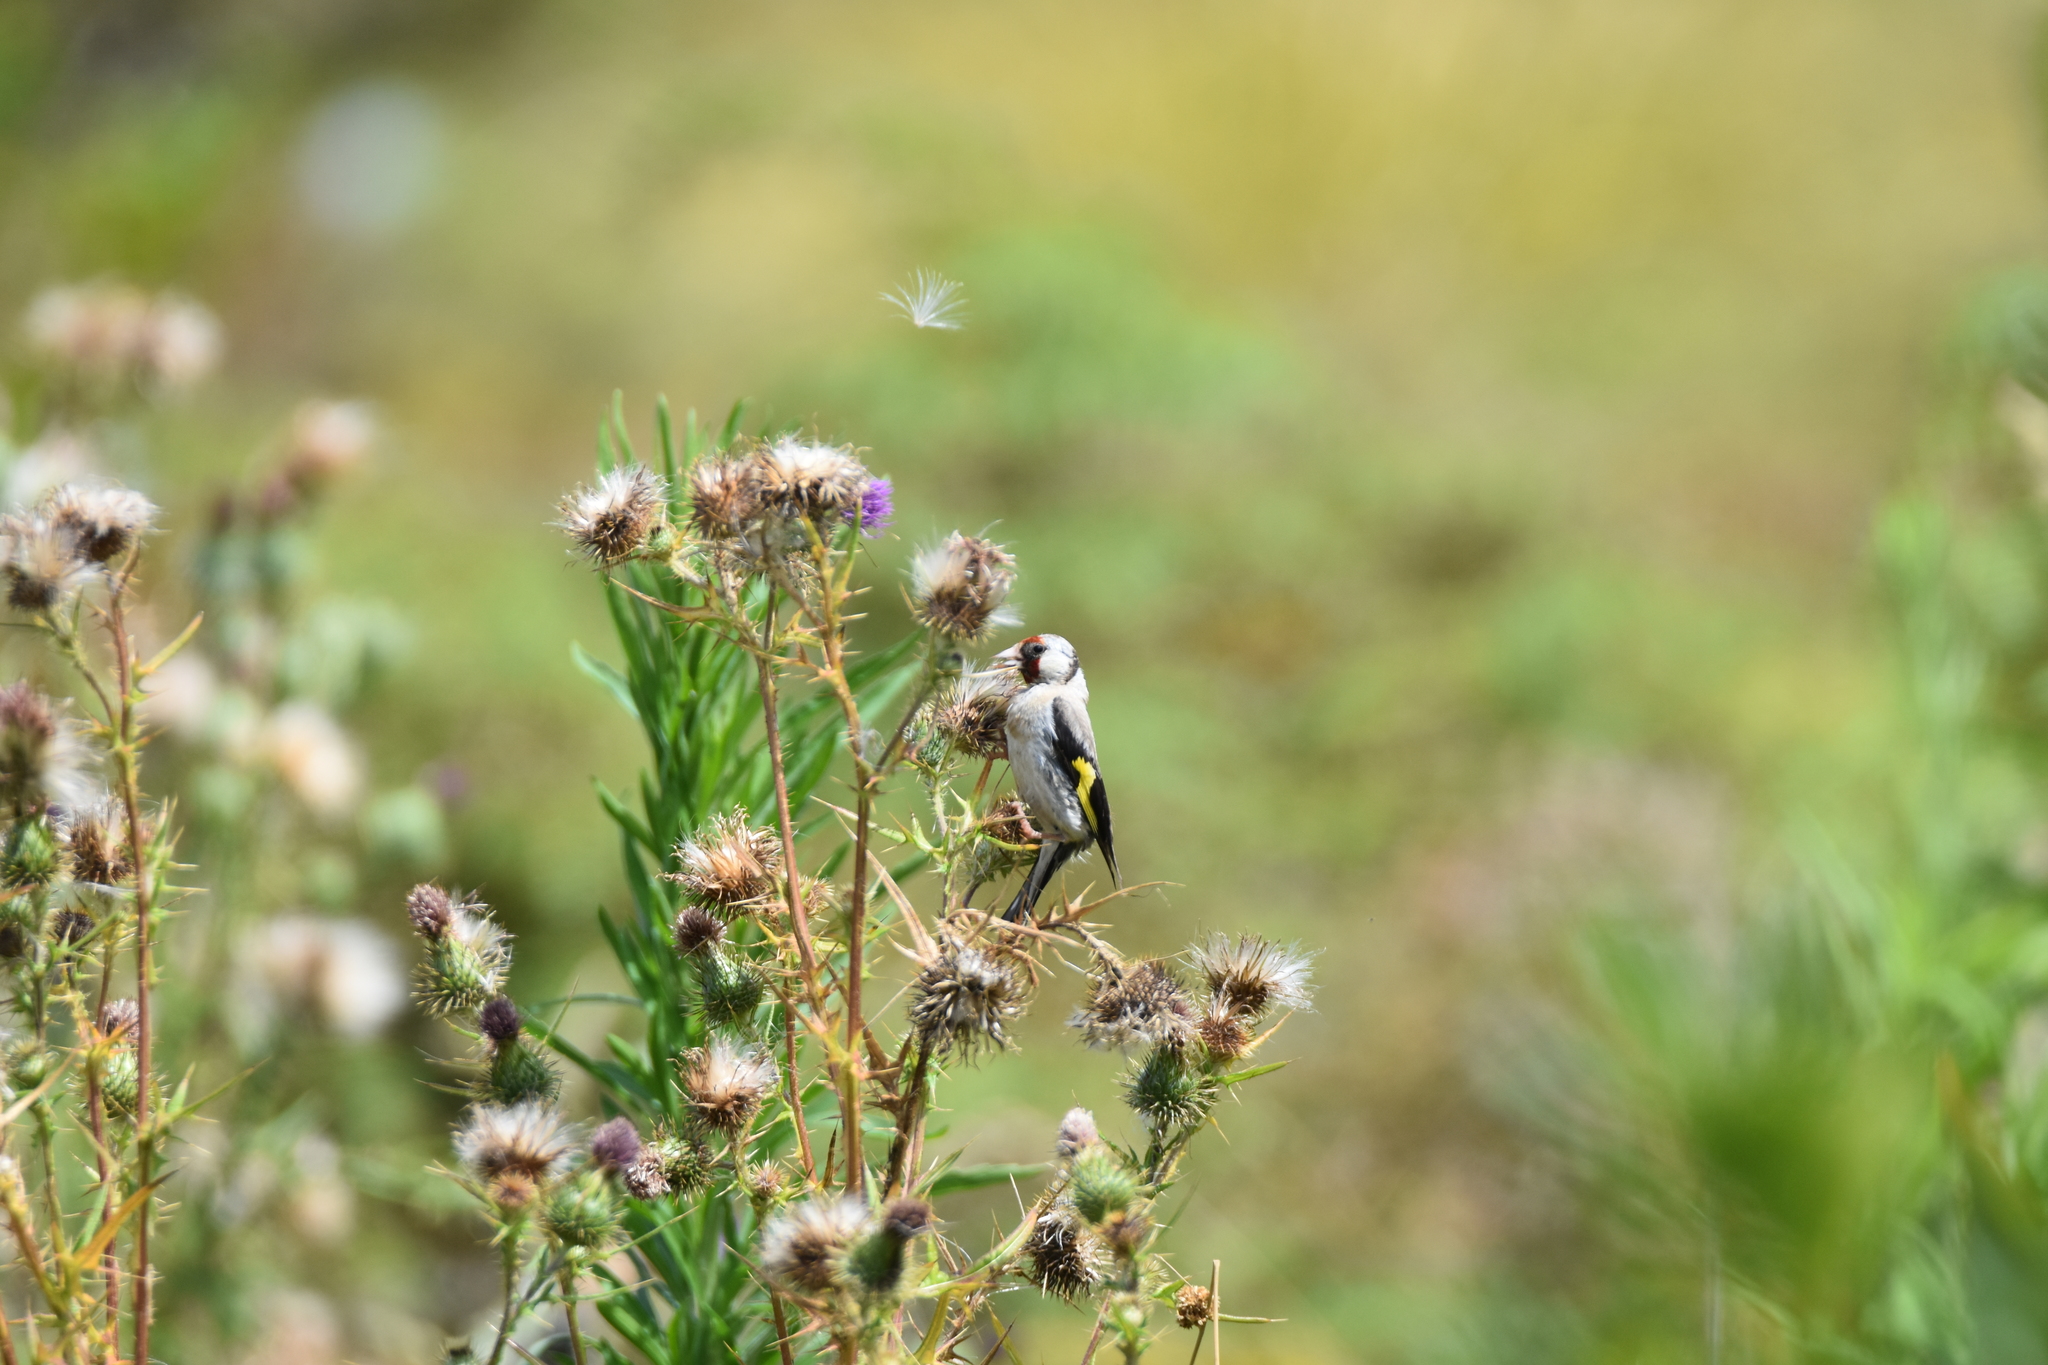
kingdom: Animalia
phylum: Chordata
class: Aves
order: Passeriformes
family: Fringillidae
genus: Carduelis
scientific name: Carduelis carduelis
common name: European goldfinch
